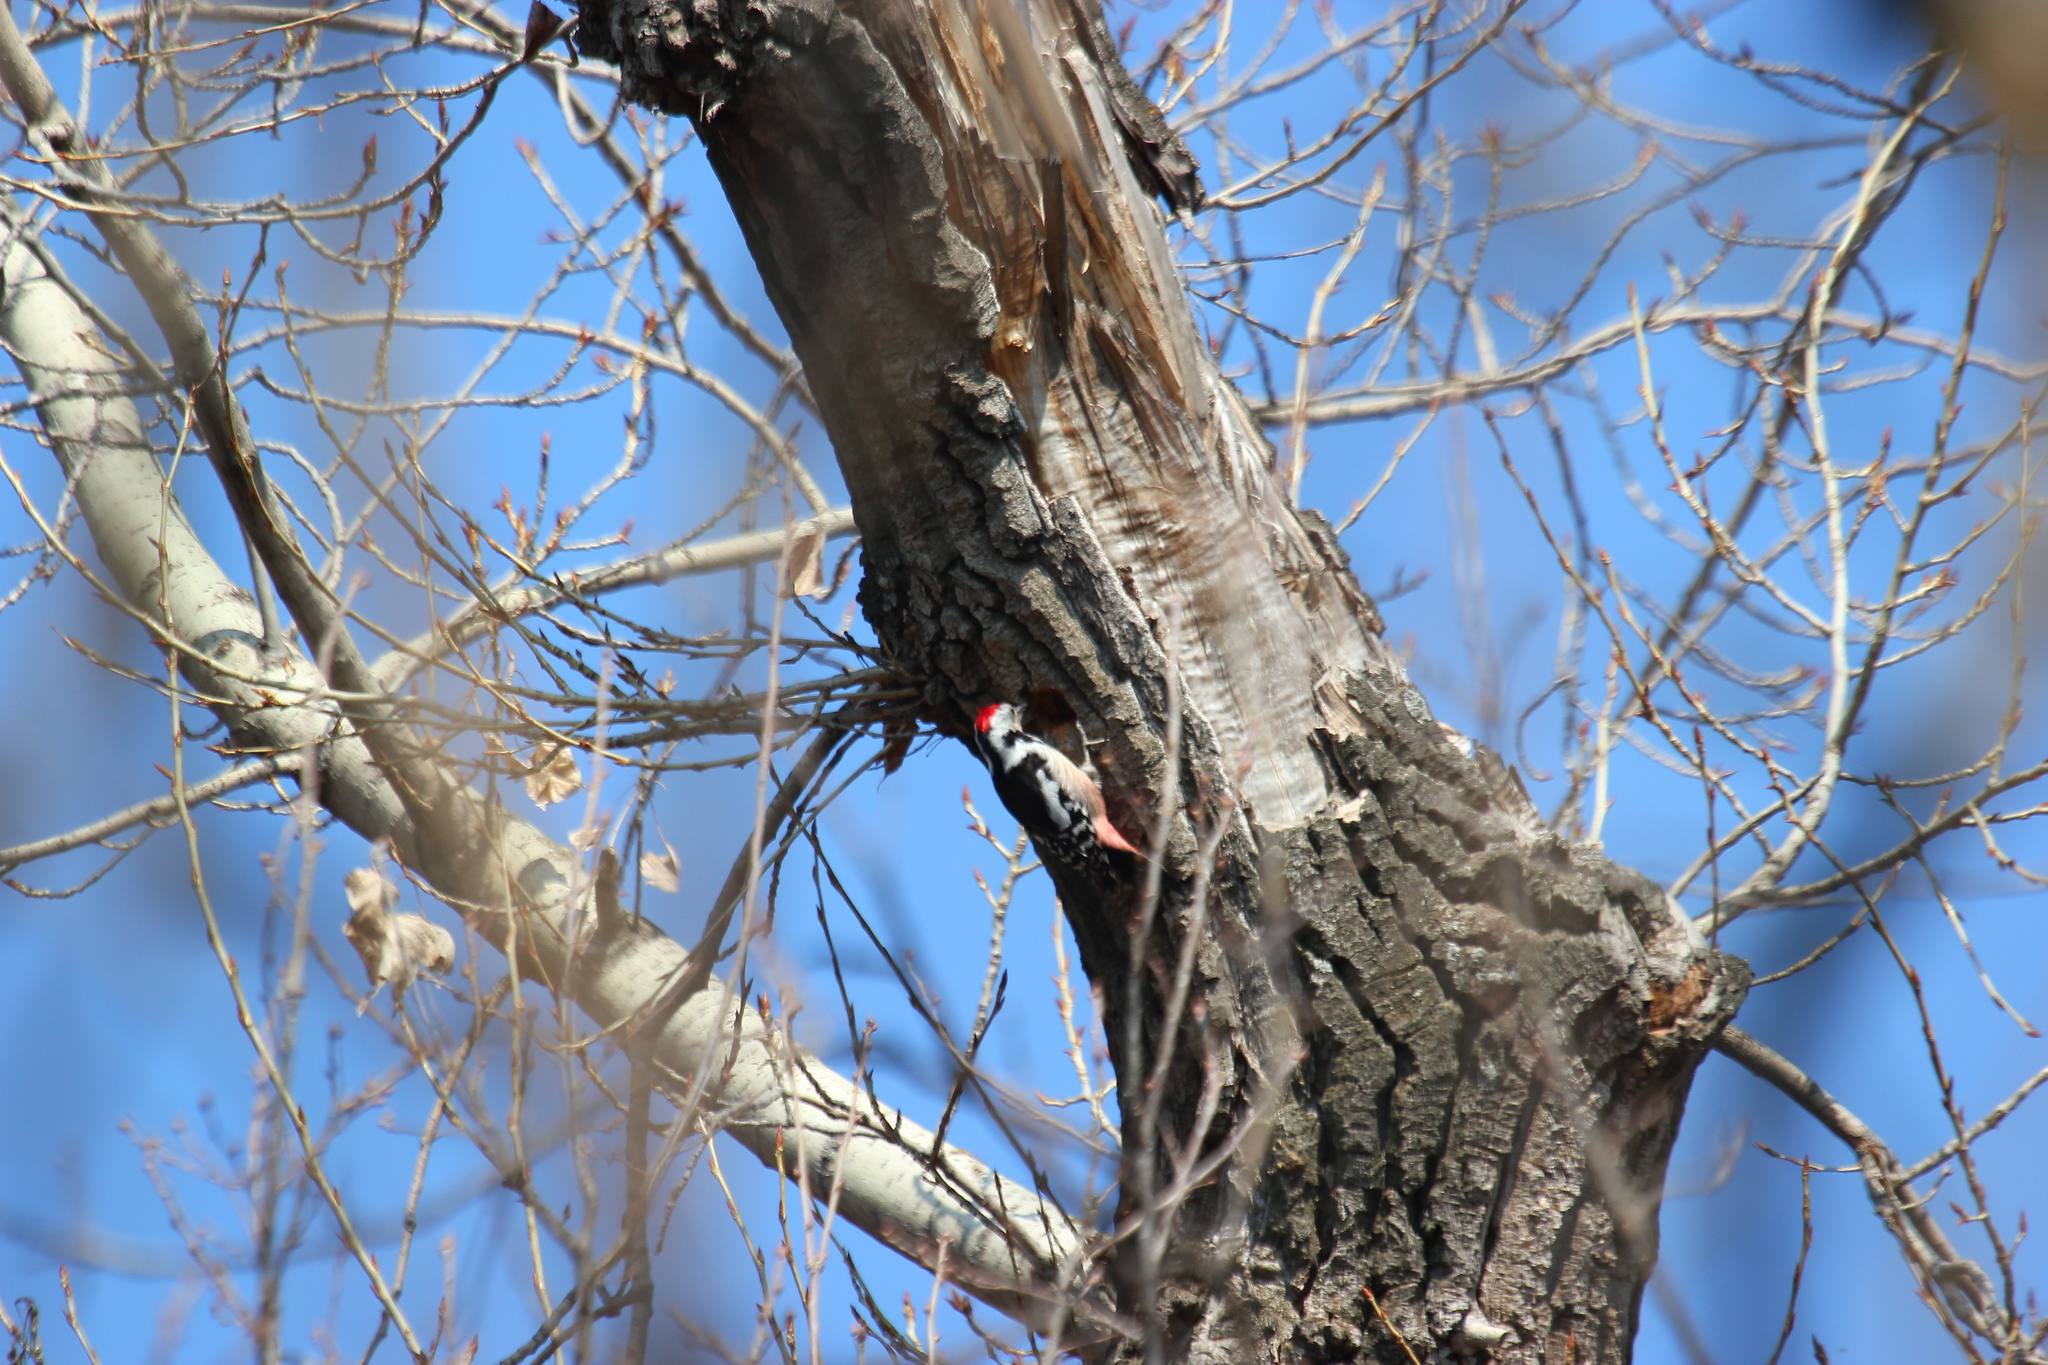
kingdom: Animalia
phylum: Chordata
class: Aves
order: Piciformes
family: Picidae
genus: Dendrocoptes
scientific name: Dendrocoptes medius
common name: Middle spotted woodpecker
